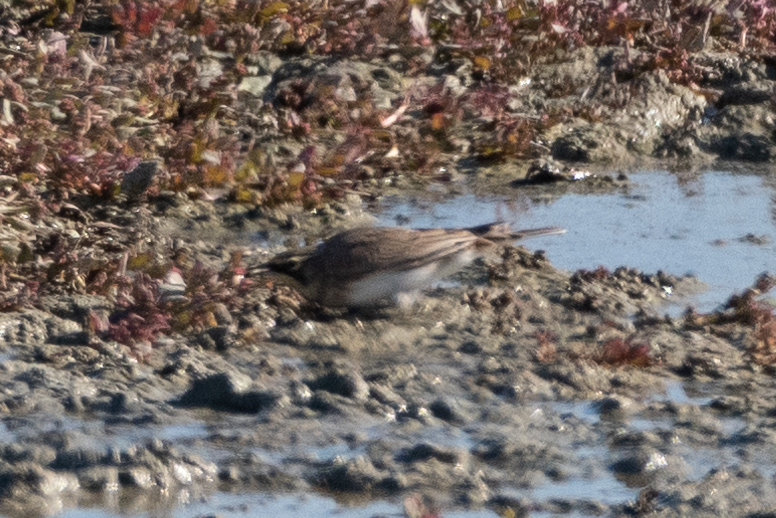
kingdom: Animalia
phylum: Chordata
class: Aves
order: Passeriformes
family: Alaudidae
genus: Eremophila
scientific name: Eremophila alpestris
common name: Horned lark
